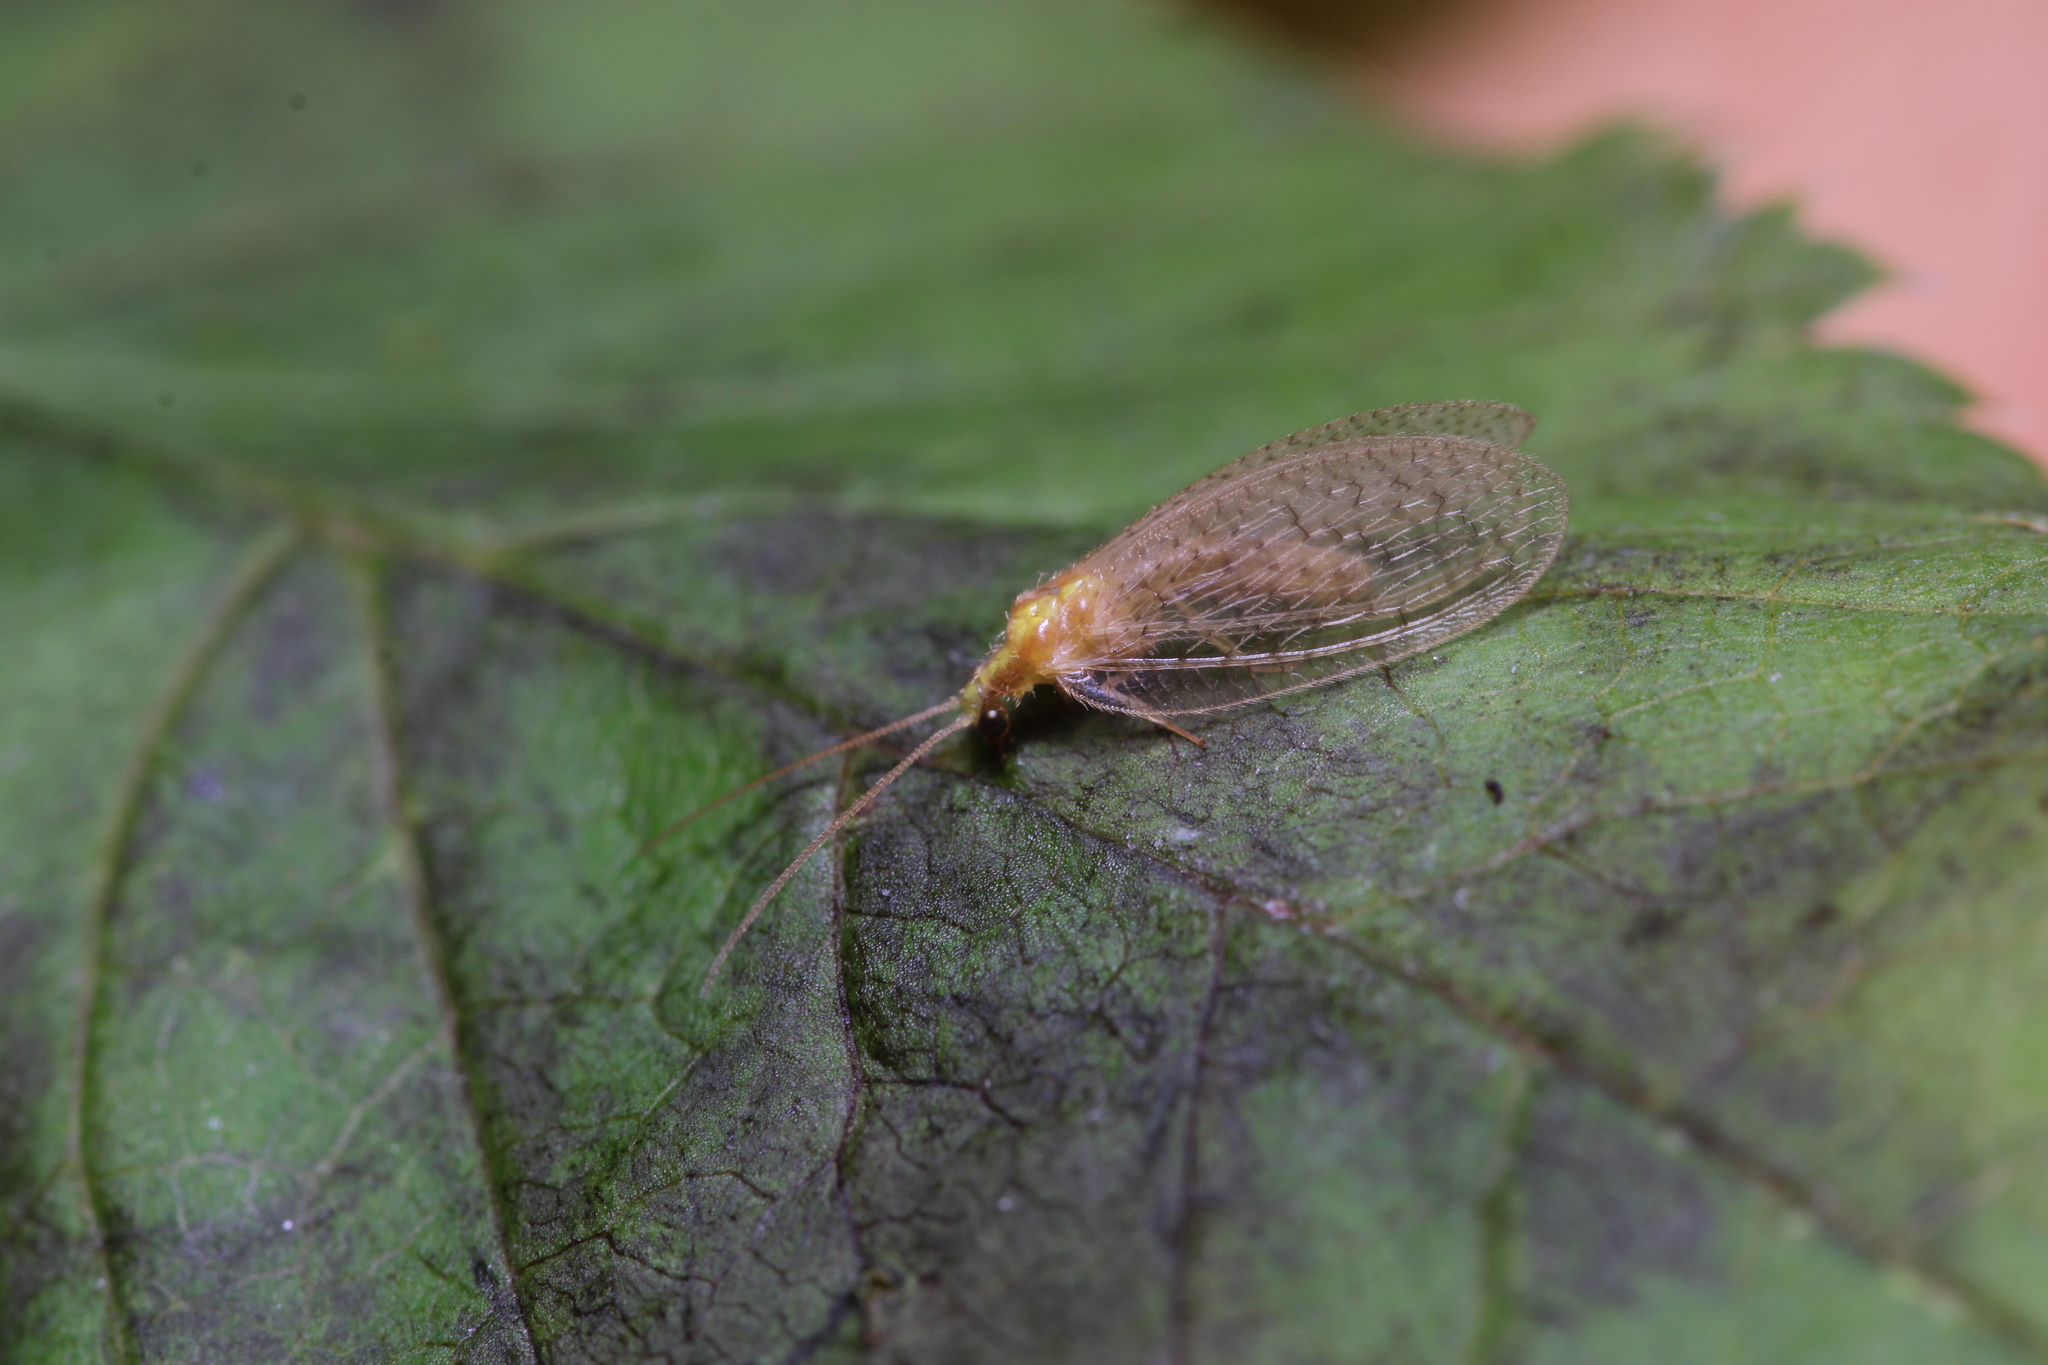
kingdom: Animalia
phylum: Arthropoda
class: Insecta
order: Neuroptera
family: Hemerobiidae
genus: Hemerobius
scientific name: Hemerobius micans
